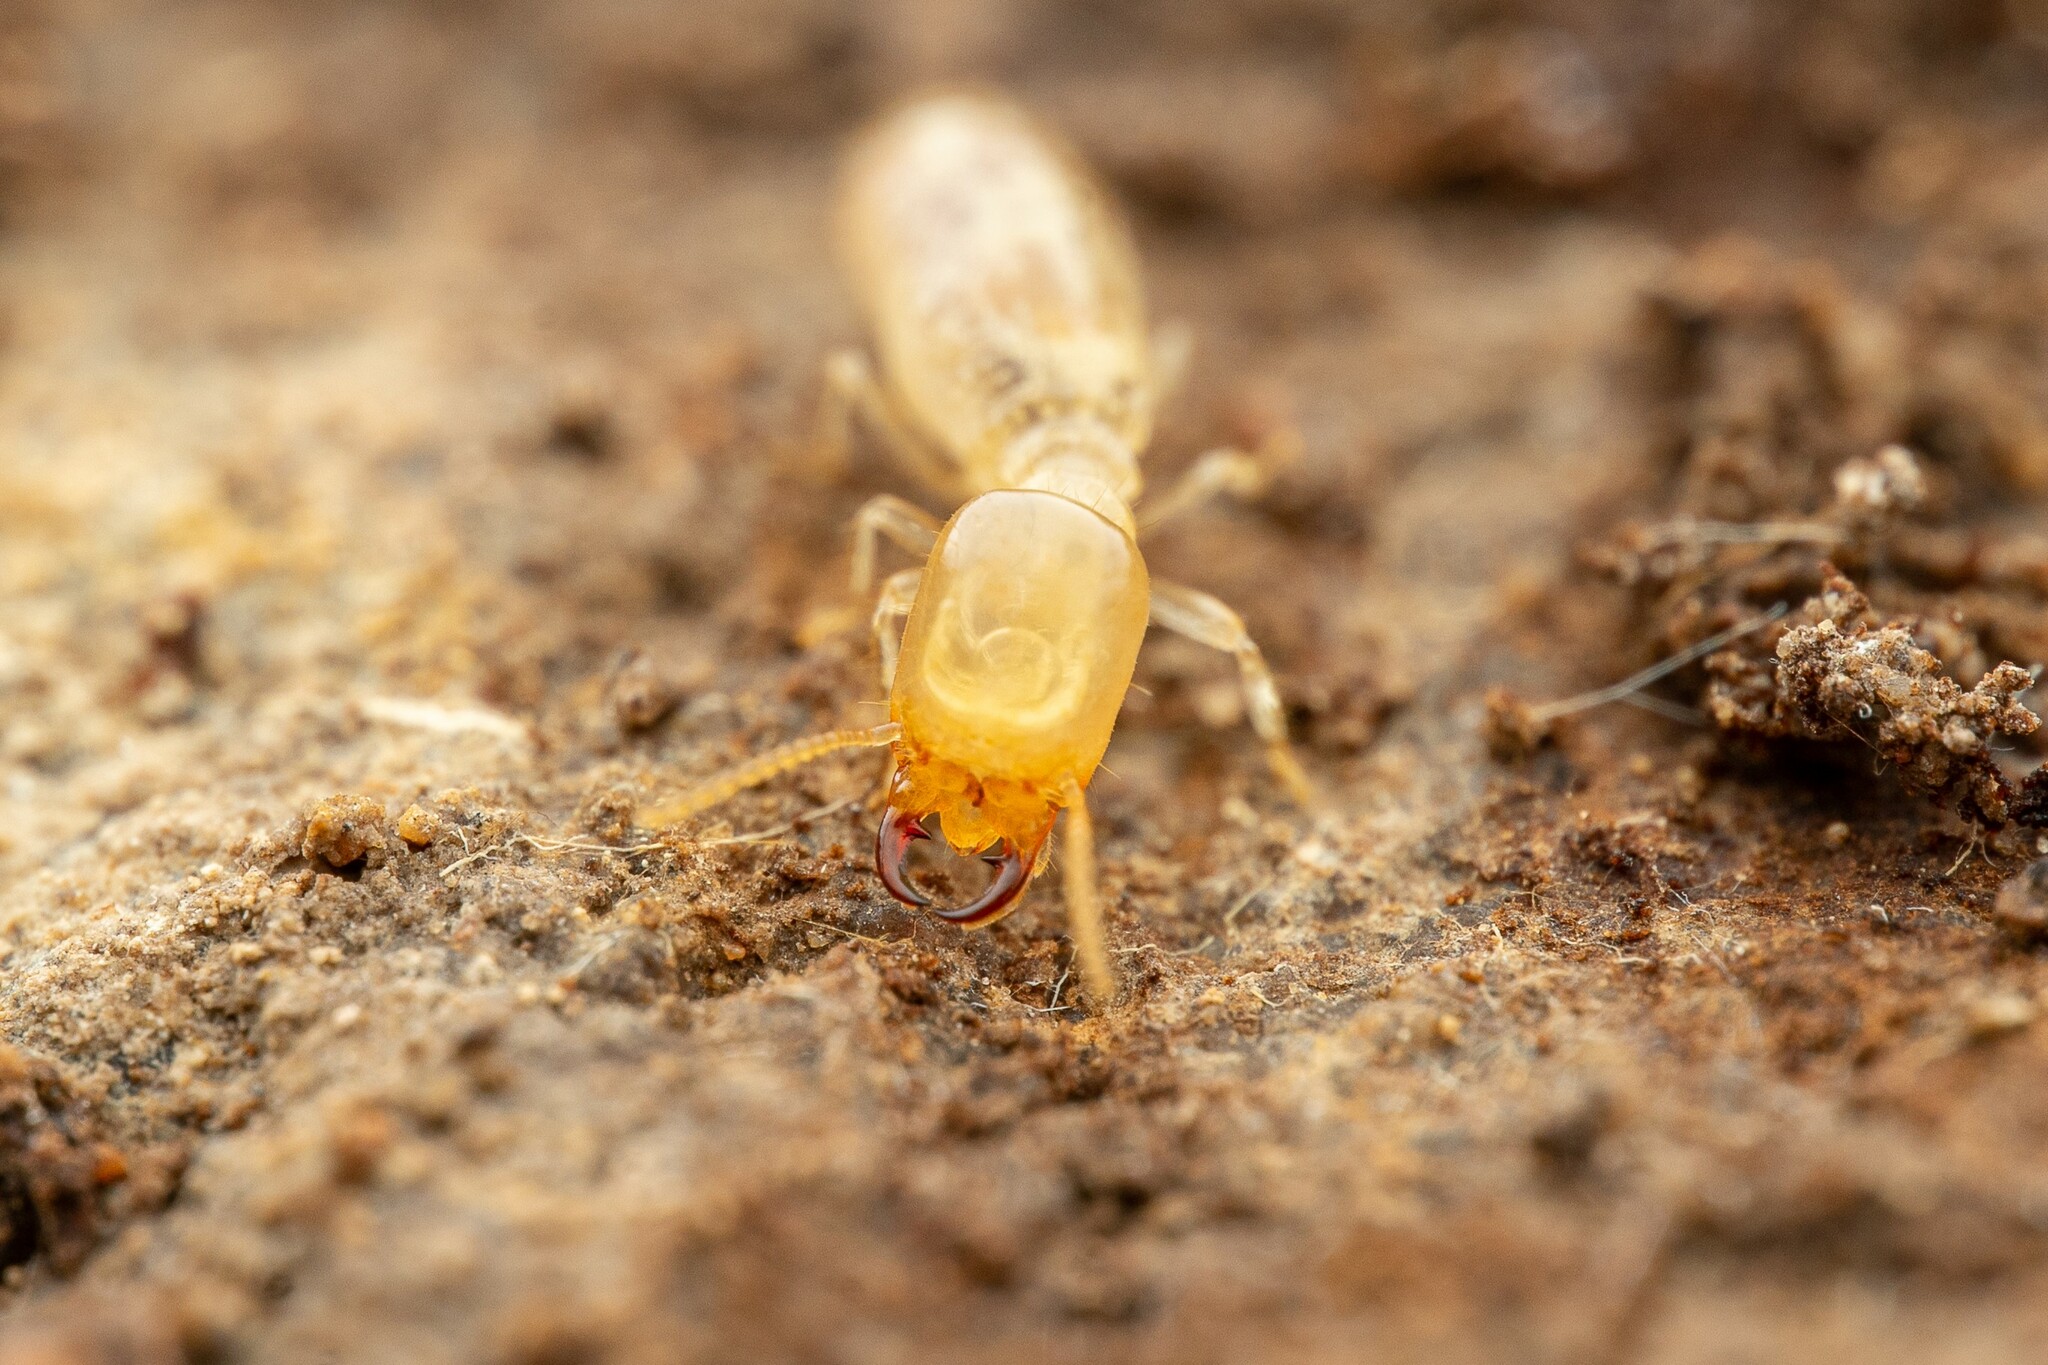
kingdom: Animalia
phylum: Arthropoda
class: Insecta
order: Blattodea
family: Termitidae
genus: Amitermes
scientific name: Amitermes wheeleri
